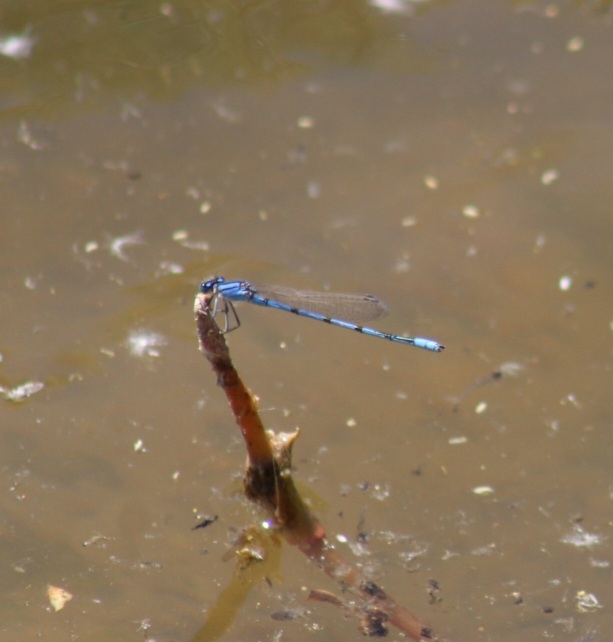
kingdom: Animalia
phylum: Arthropoda
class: Insecta
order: Odonata
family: Coenagrionidae
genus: Enallagma
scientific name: Enallagma civile
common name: Damselfly
